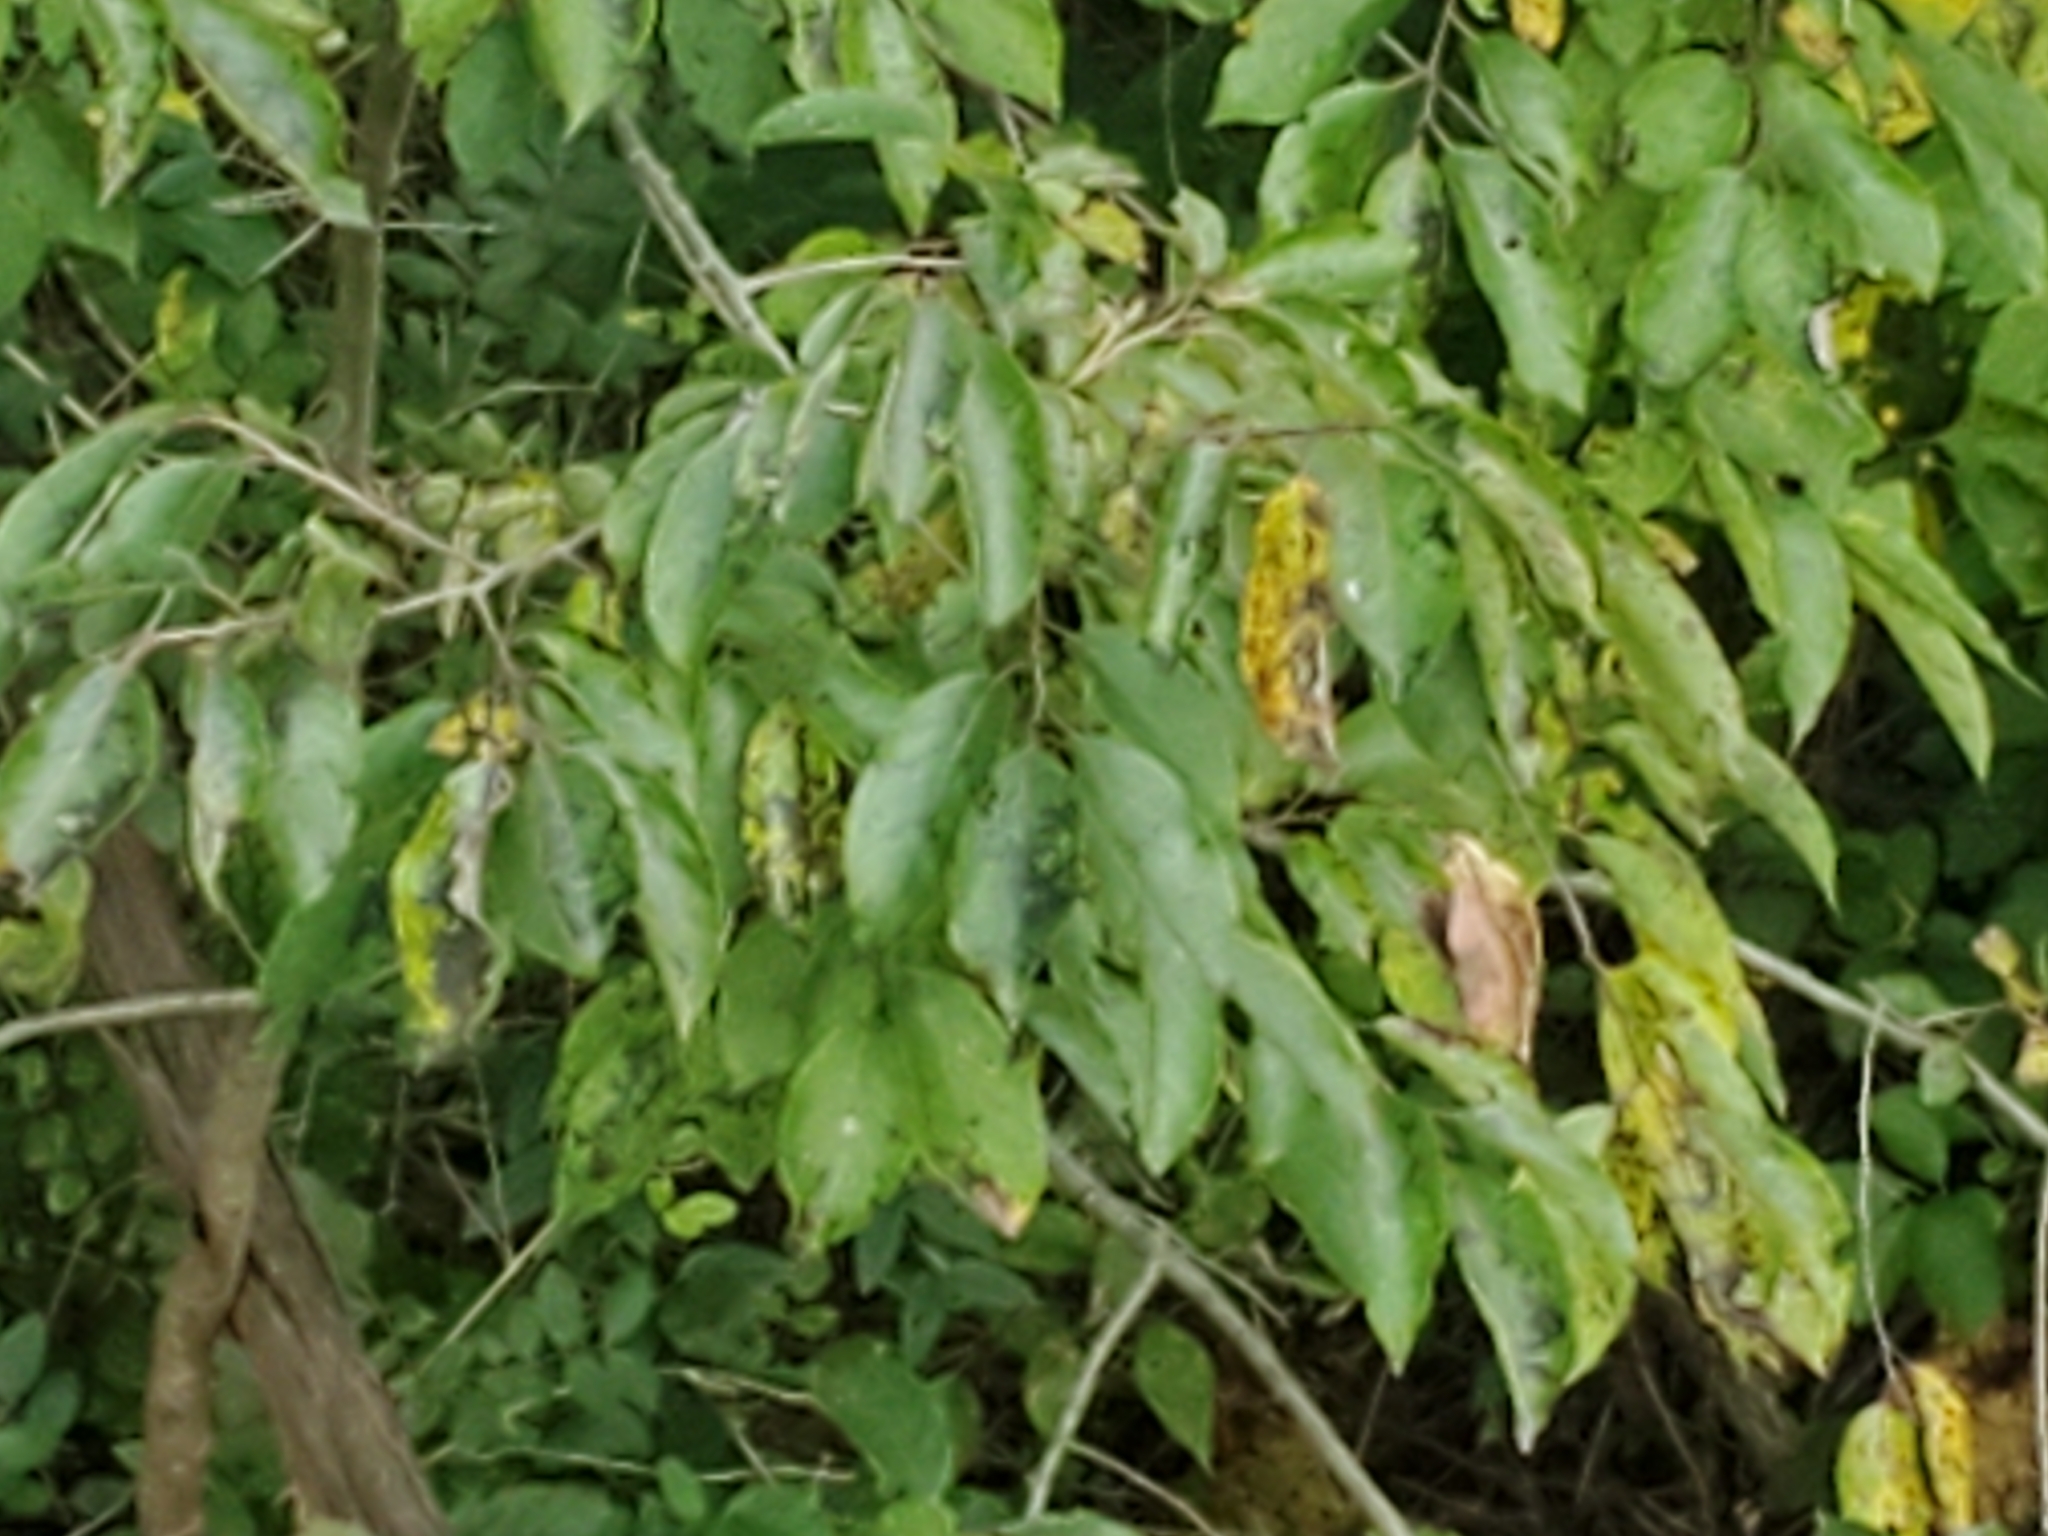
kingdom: Plantae
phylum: Tracheophyta
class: Magnoliopsida
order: Ericales
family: Ebenaceae
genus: Diospyros
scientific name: Diospyros virginiana
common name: Persimmon
